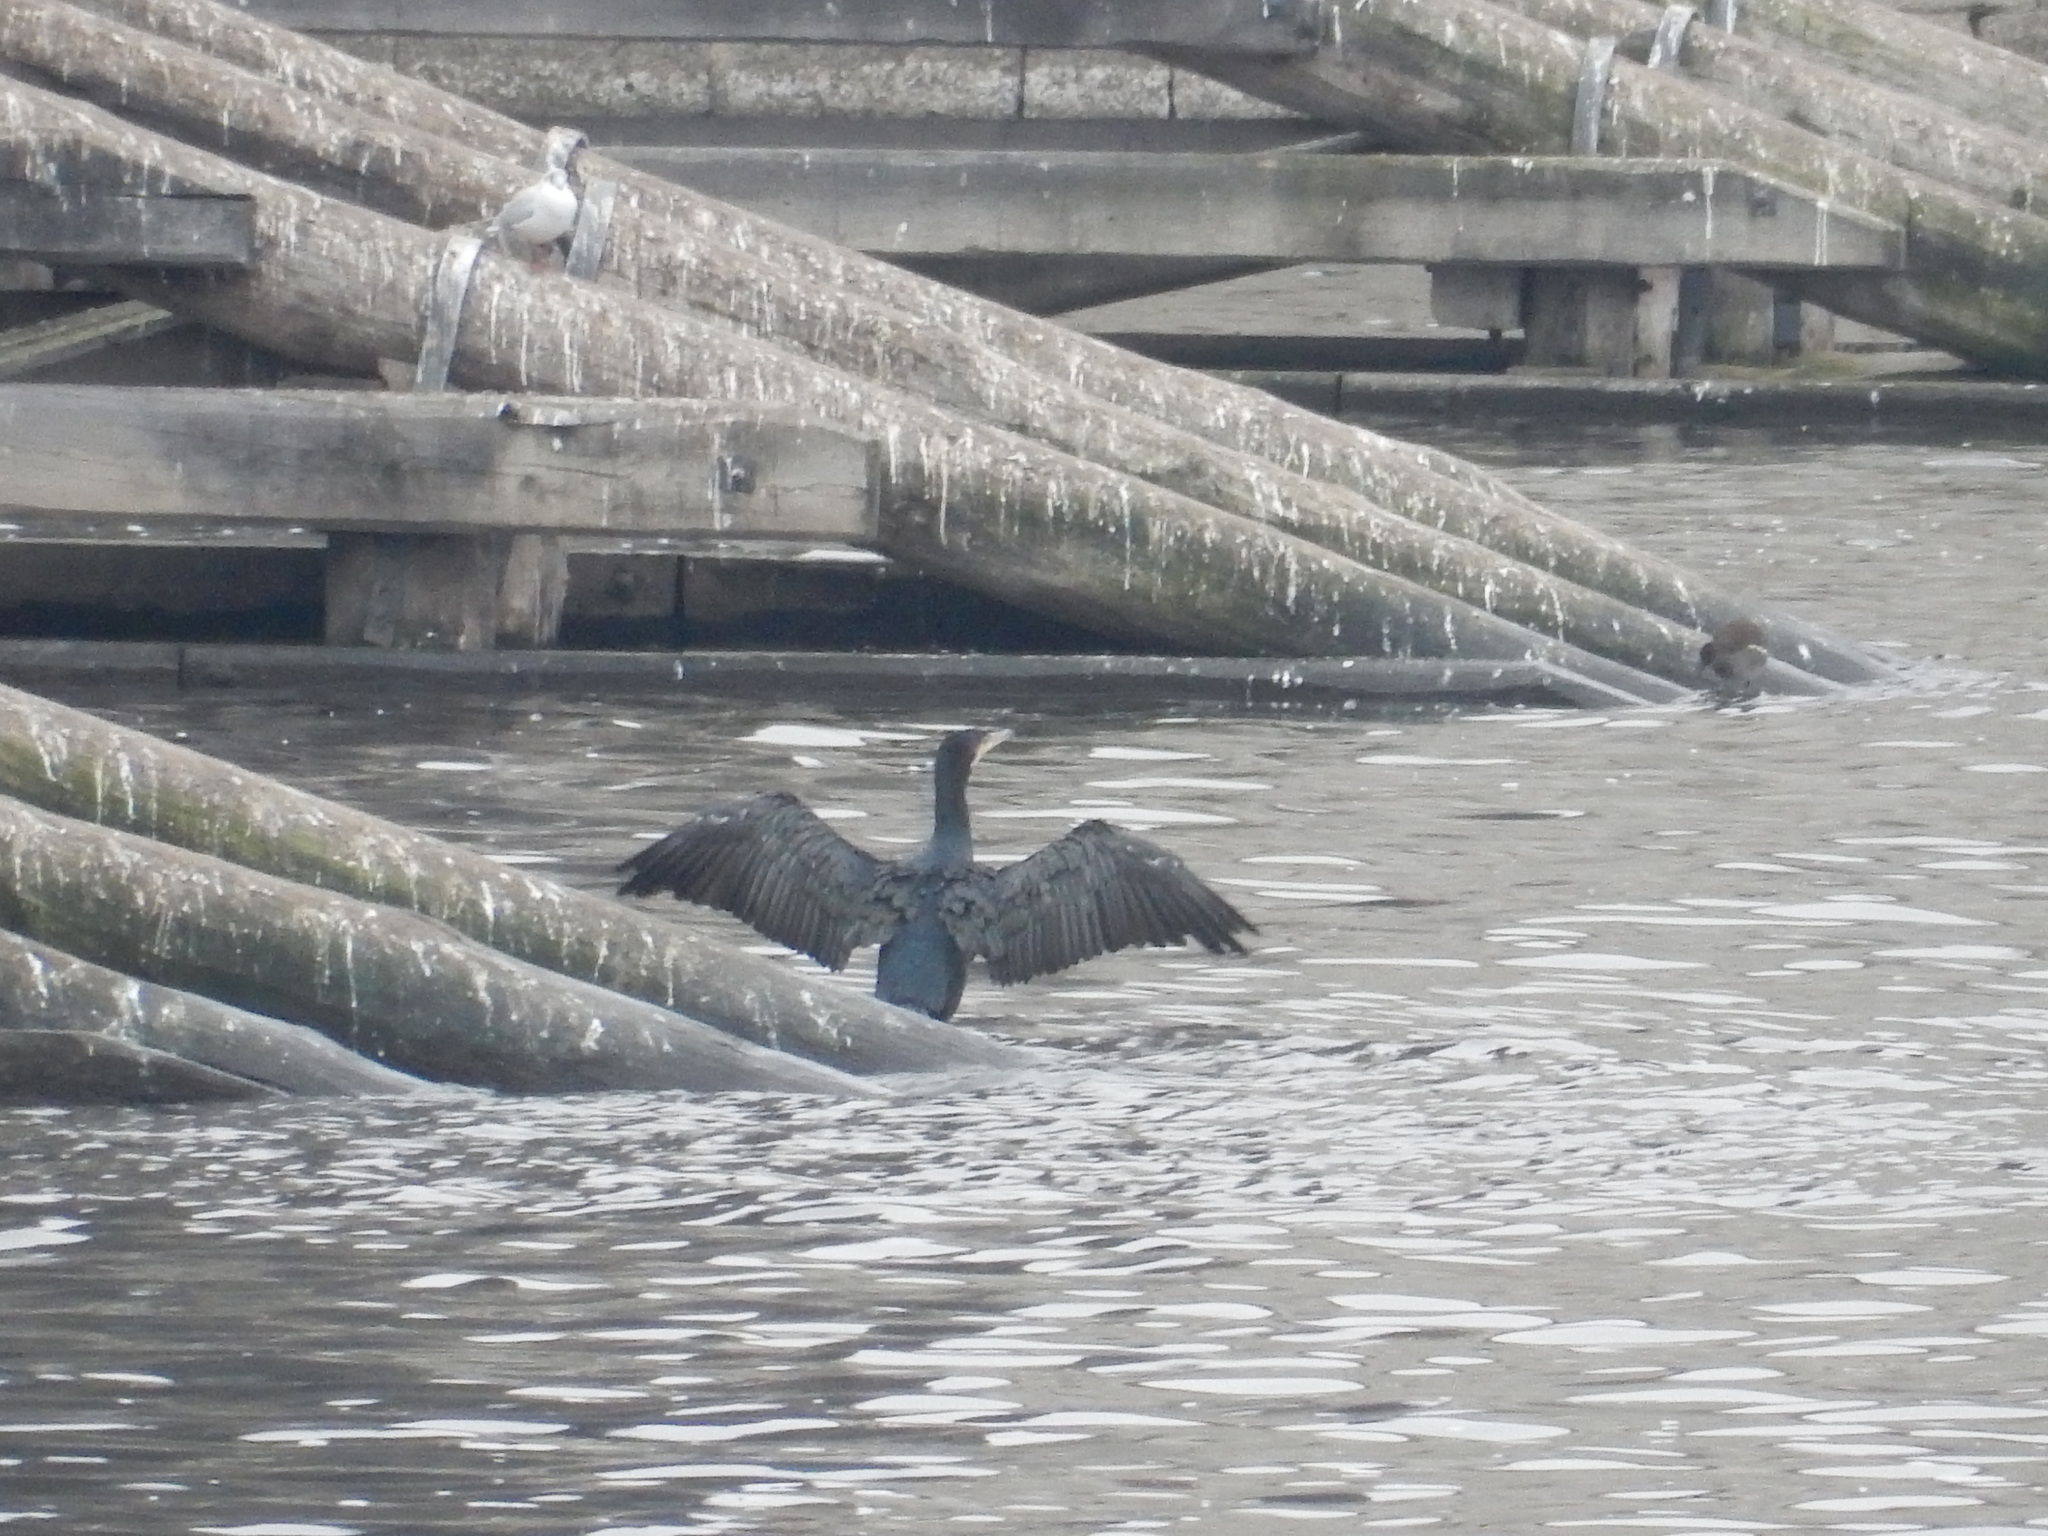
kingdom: Animalia
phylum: Chordata
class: Aves
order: Suliformes
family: Phalacrocoracidae
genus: Phalacrocorax
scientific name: Phalacrocorax carbo
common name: Great cormorant
